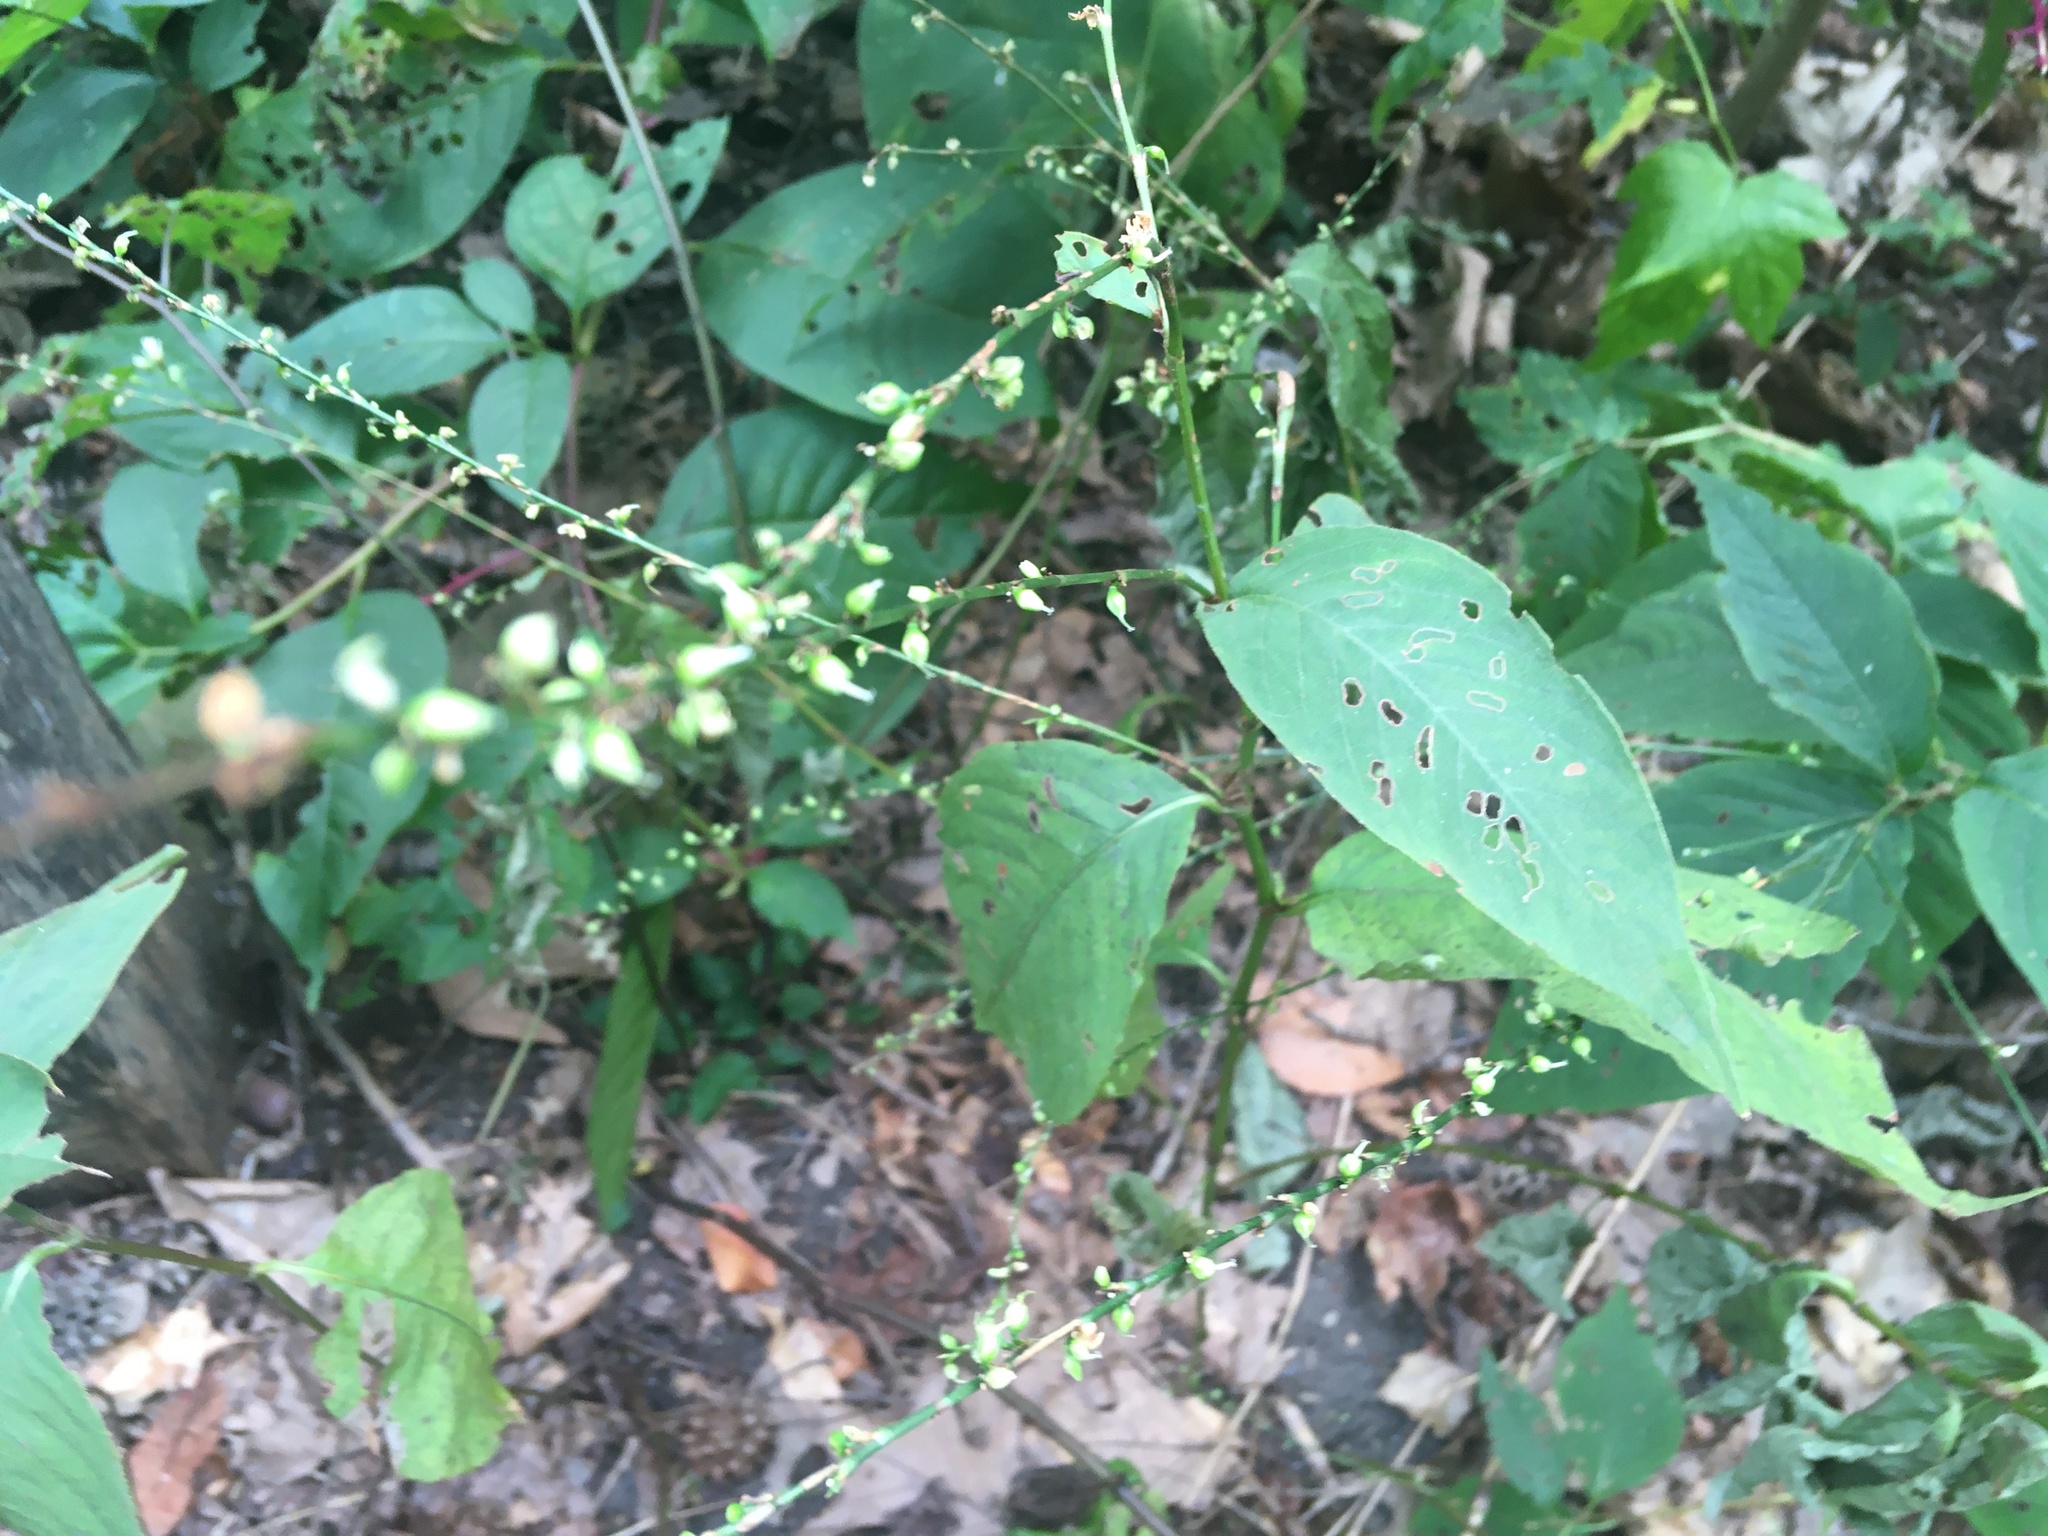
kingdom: Plantae
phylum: Tracheophyta
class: Magnoliopsida
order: Caryophyllales
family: Polygonaceae
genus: Persicaria
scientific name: Persicaria virginiana
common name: Jumpseed
